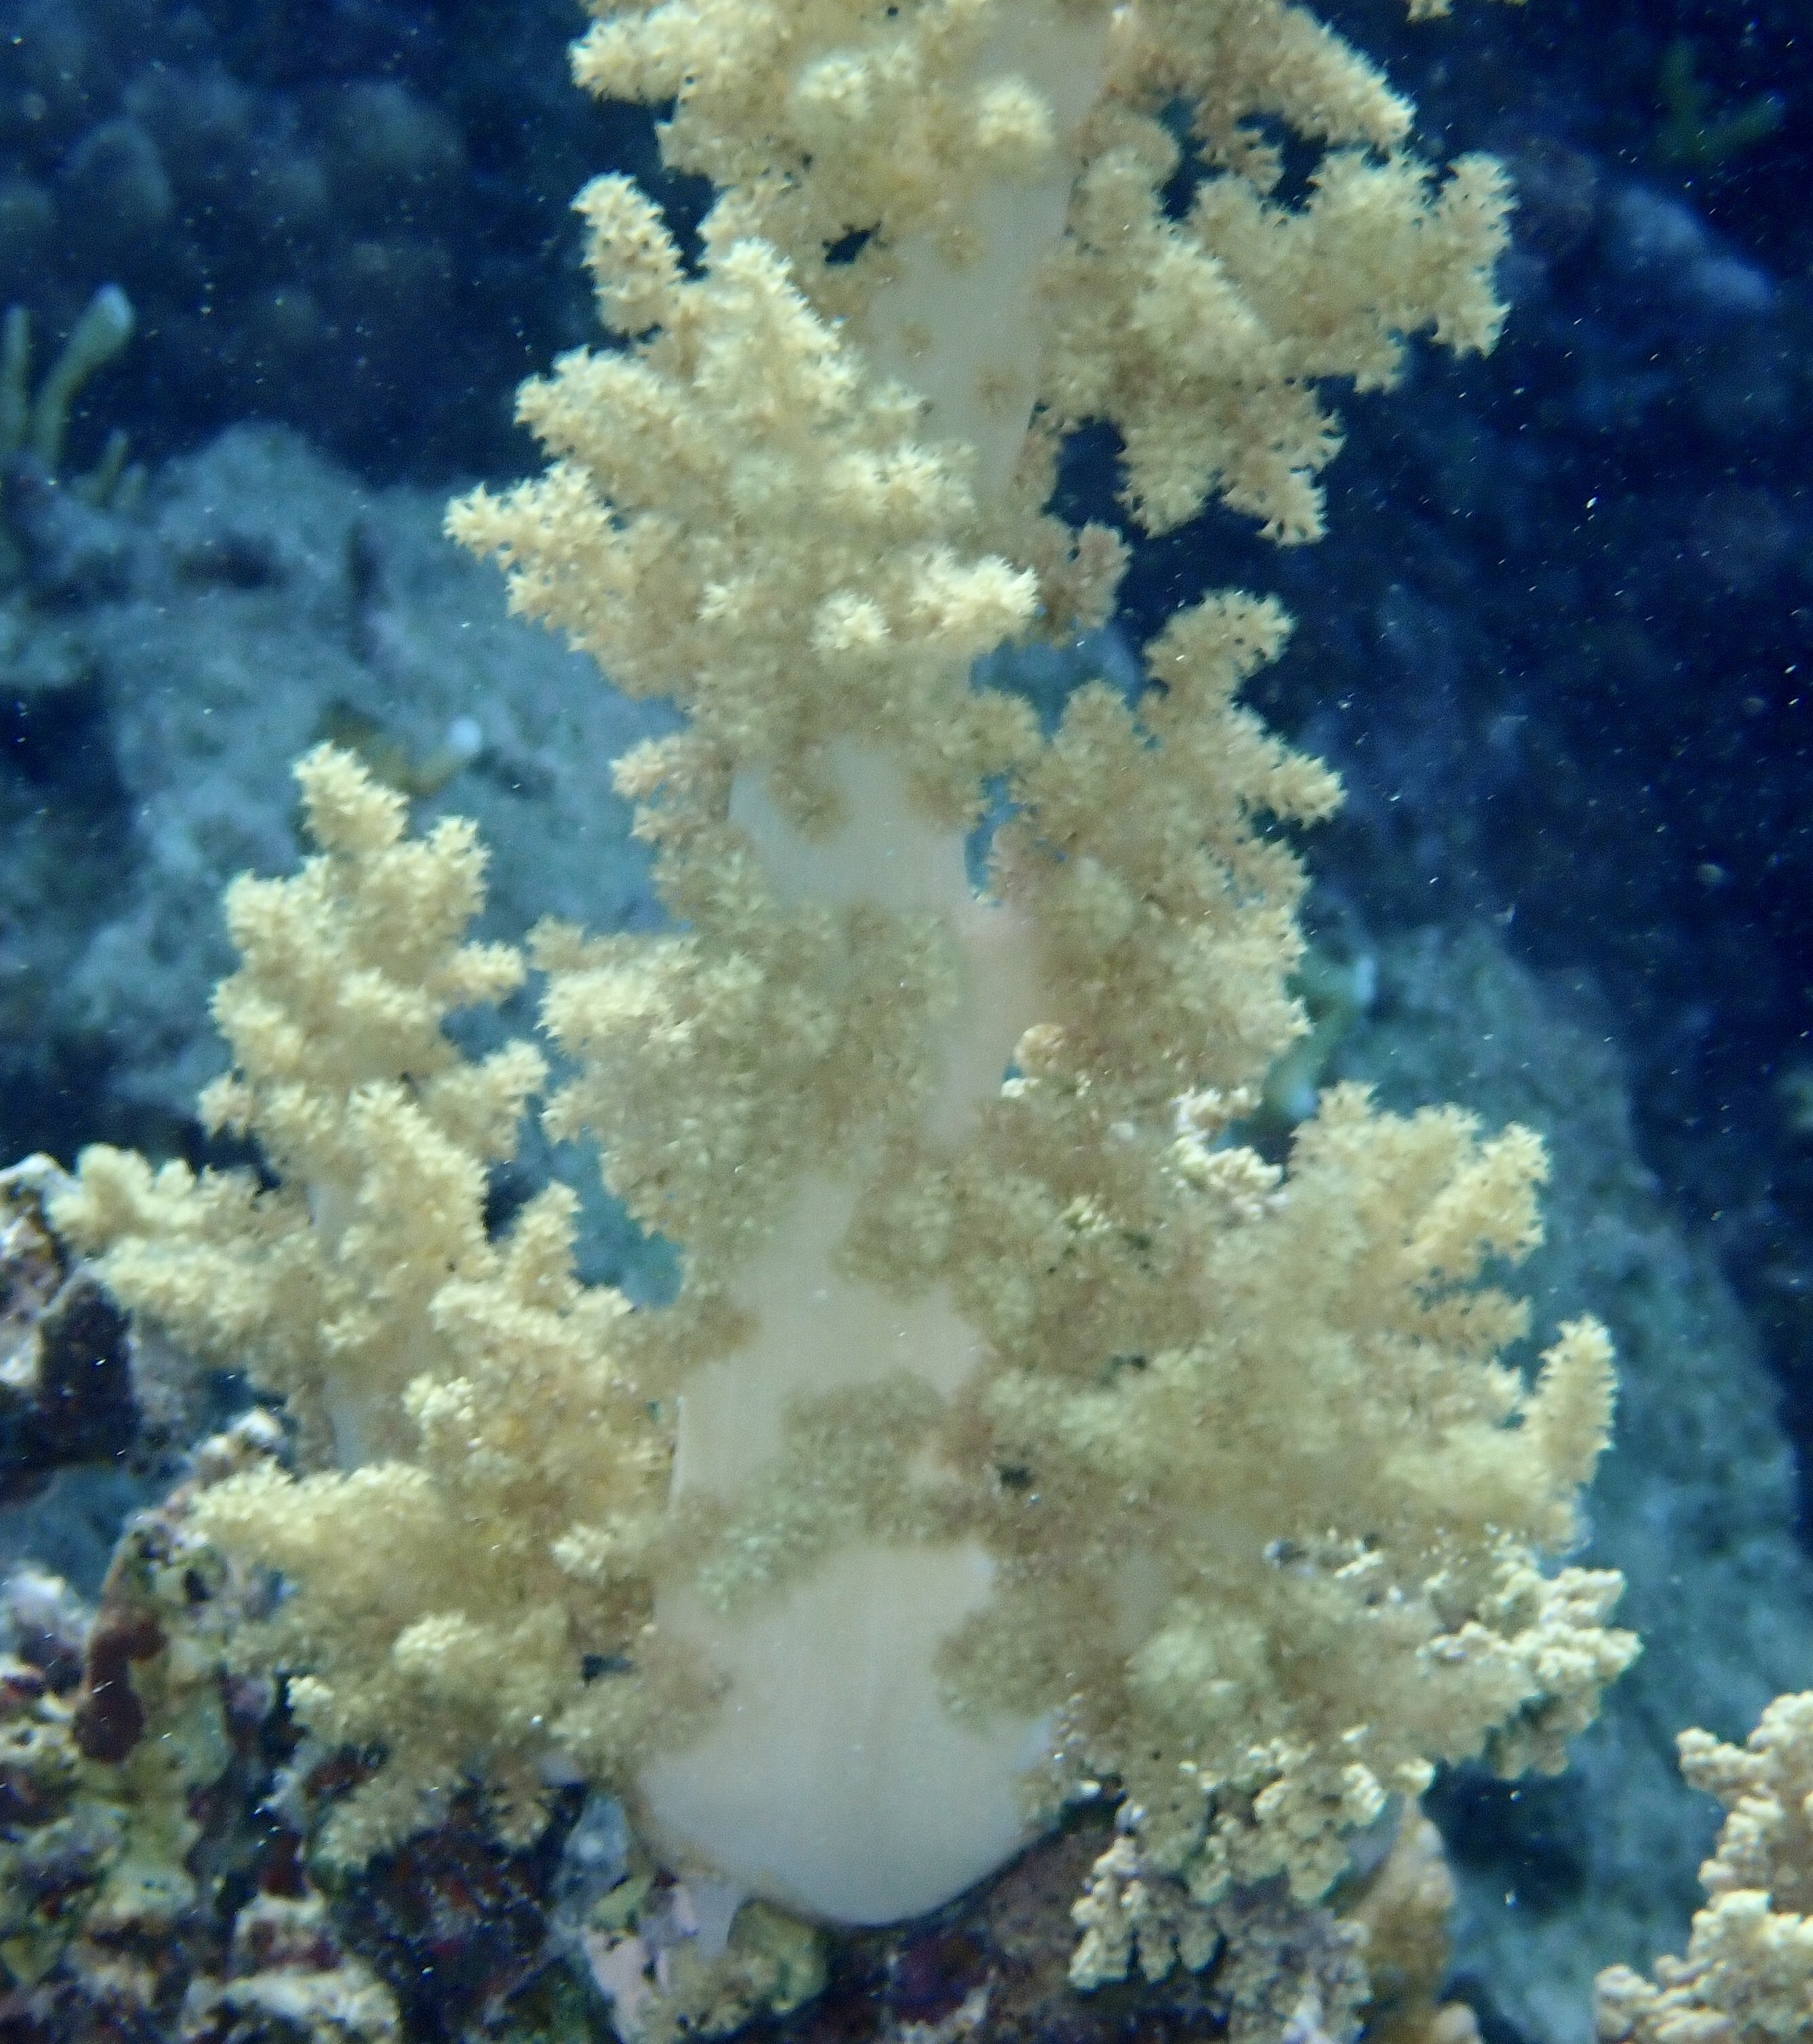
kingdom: Animalia
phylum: Cnidaria
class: Anthozoa
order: Malacalcyonacea
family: Nephtheidae
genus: Litophyton
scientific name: Litophyton arboreum
